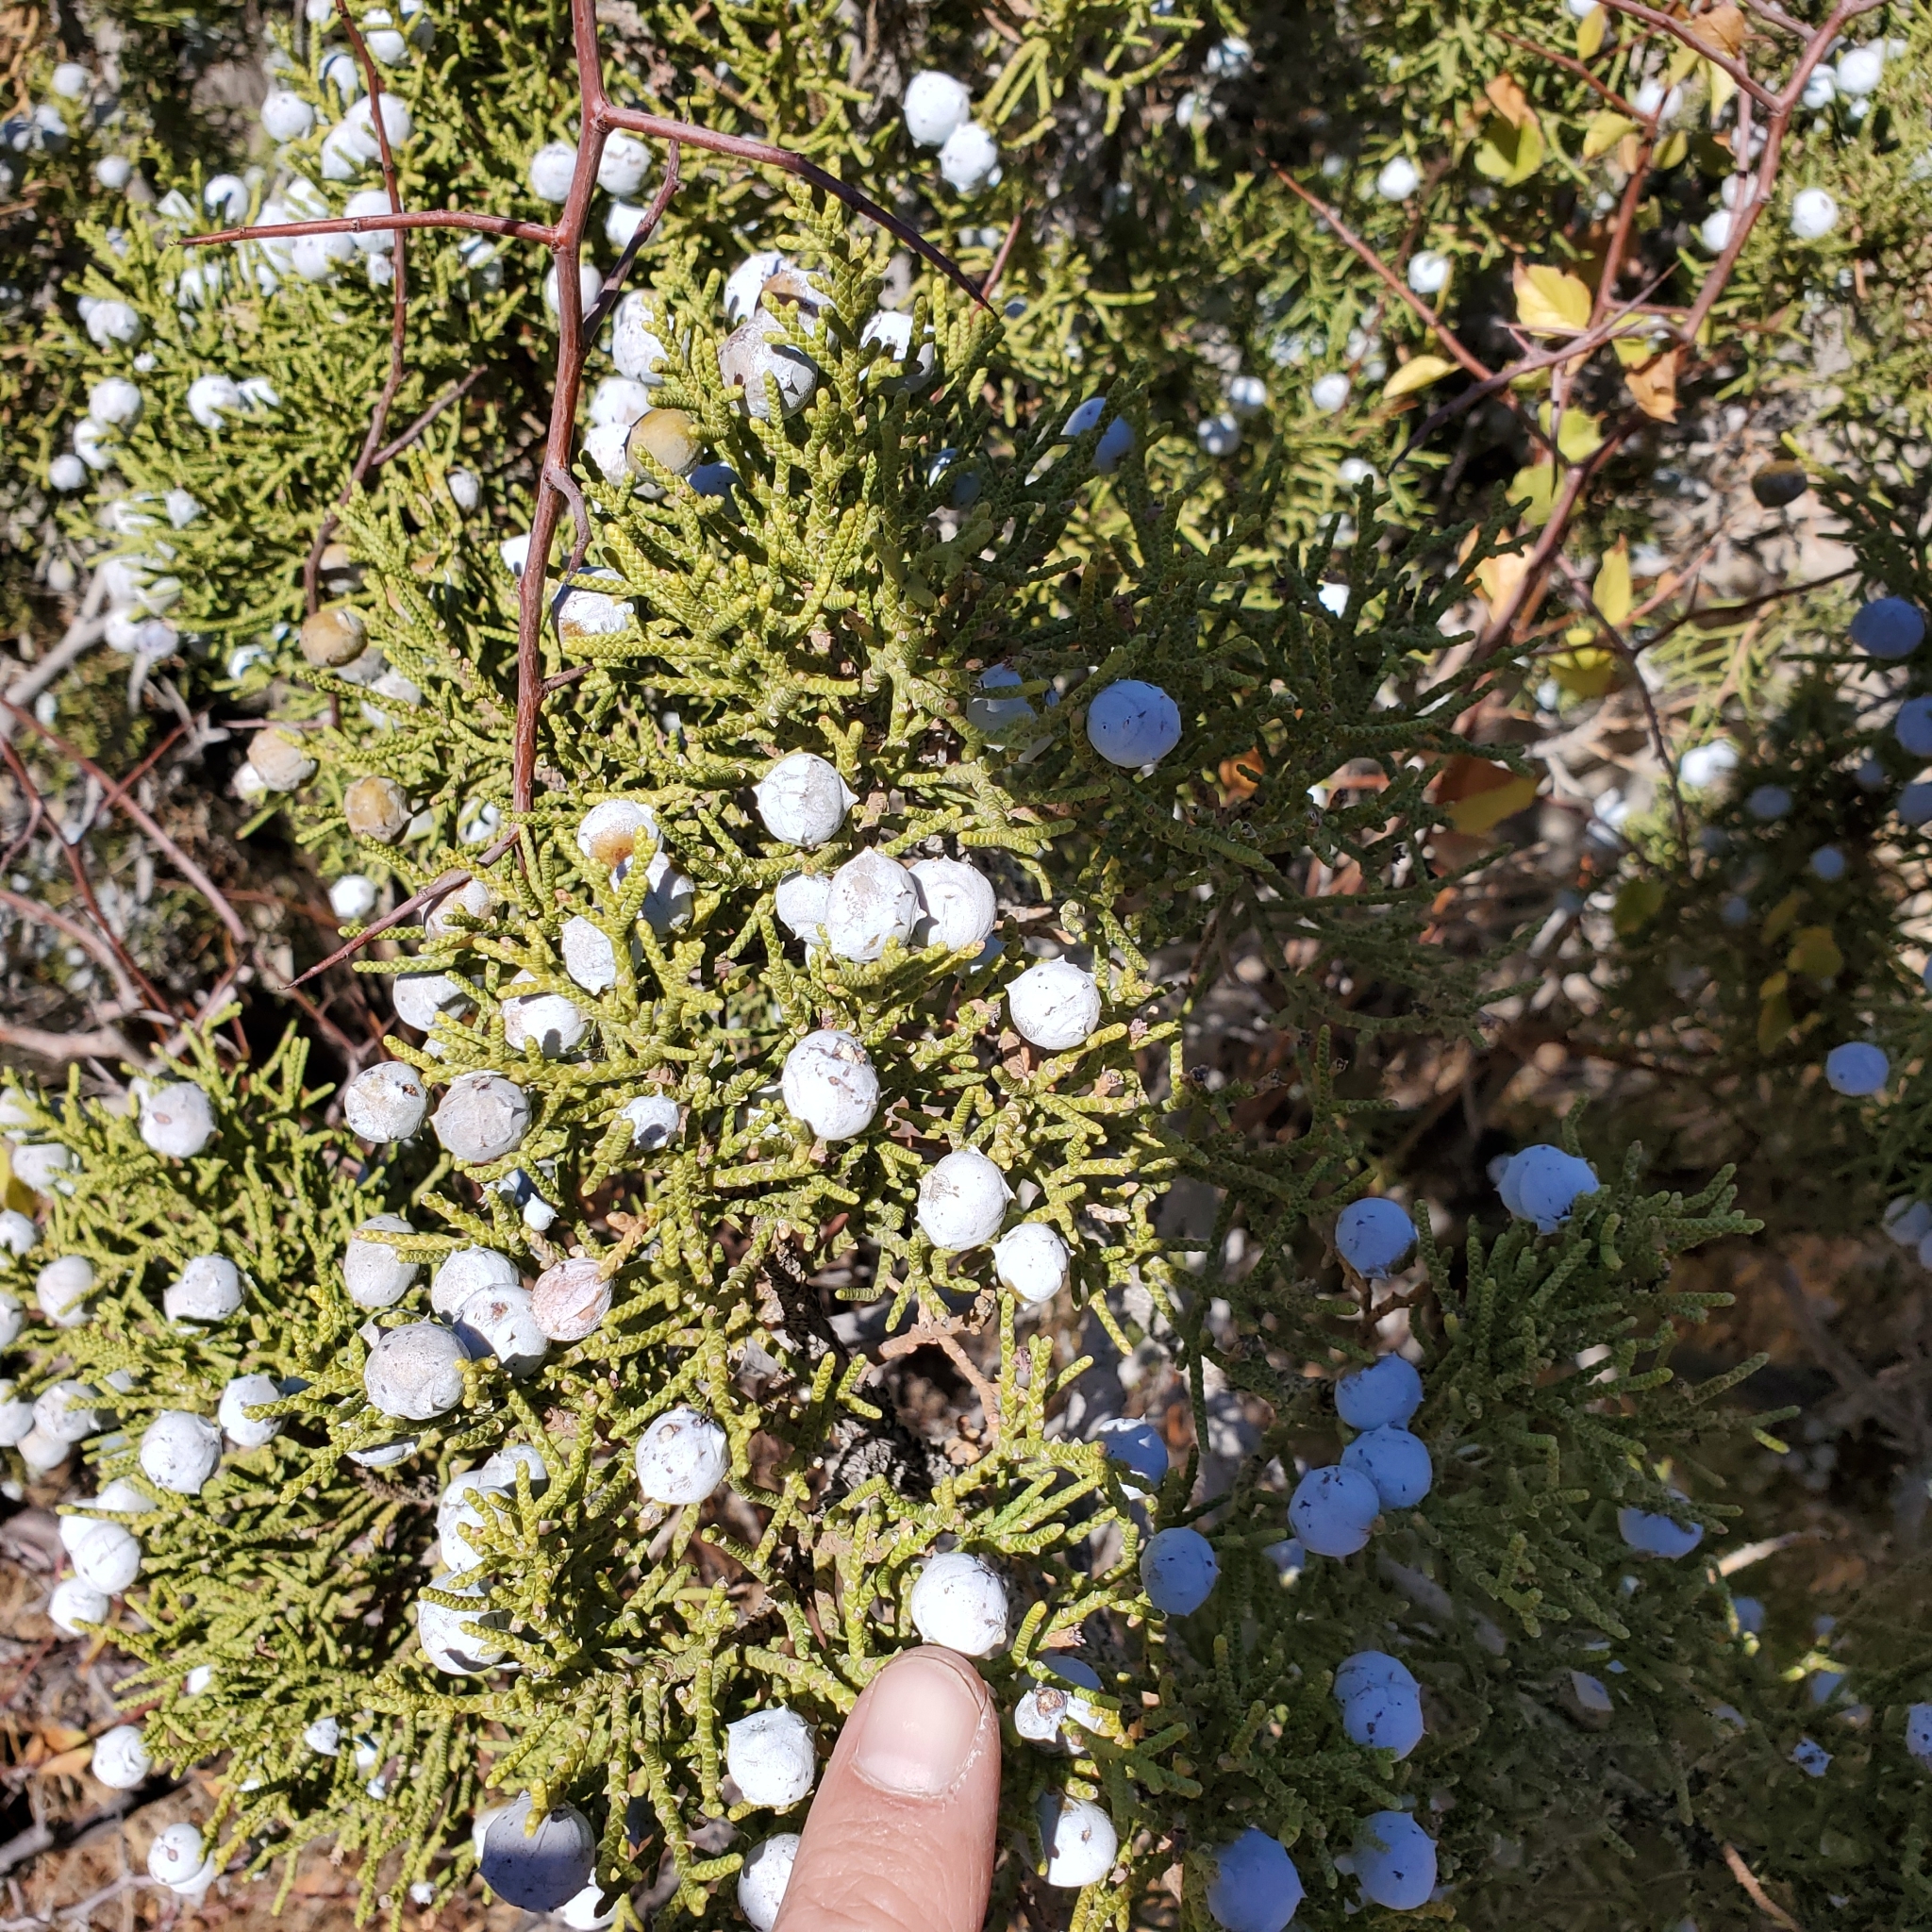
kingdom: Plantae
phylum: Tracheophyta
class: Pinopsida
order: Pinales
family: Cupressaceae
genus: Juniperus
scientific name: Juniperus californica
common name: California juniper
